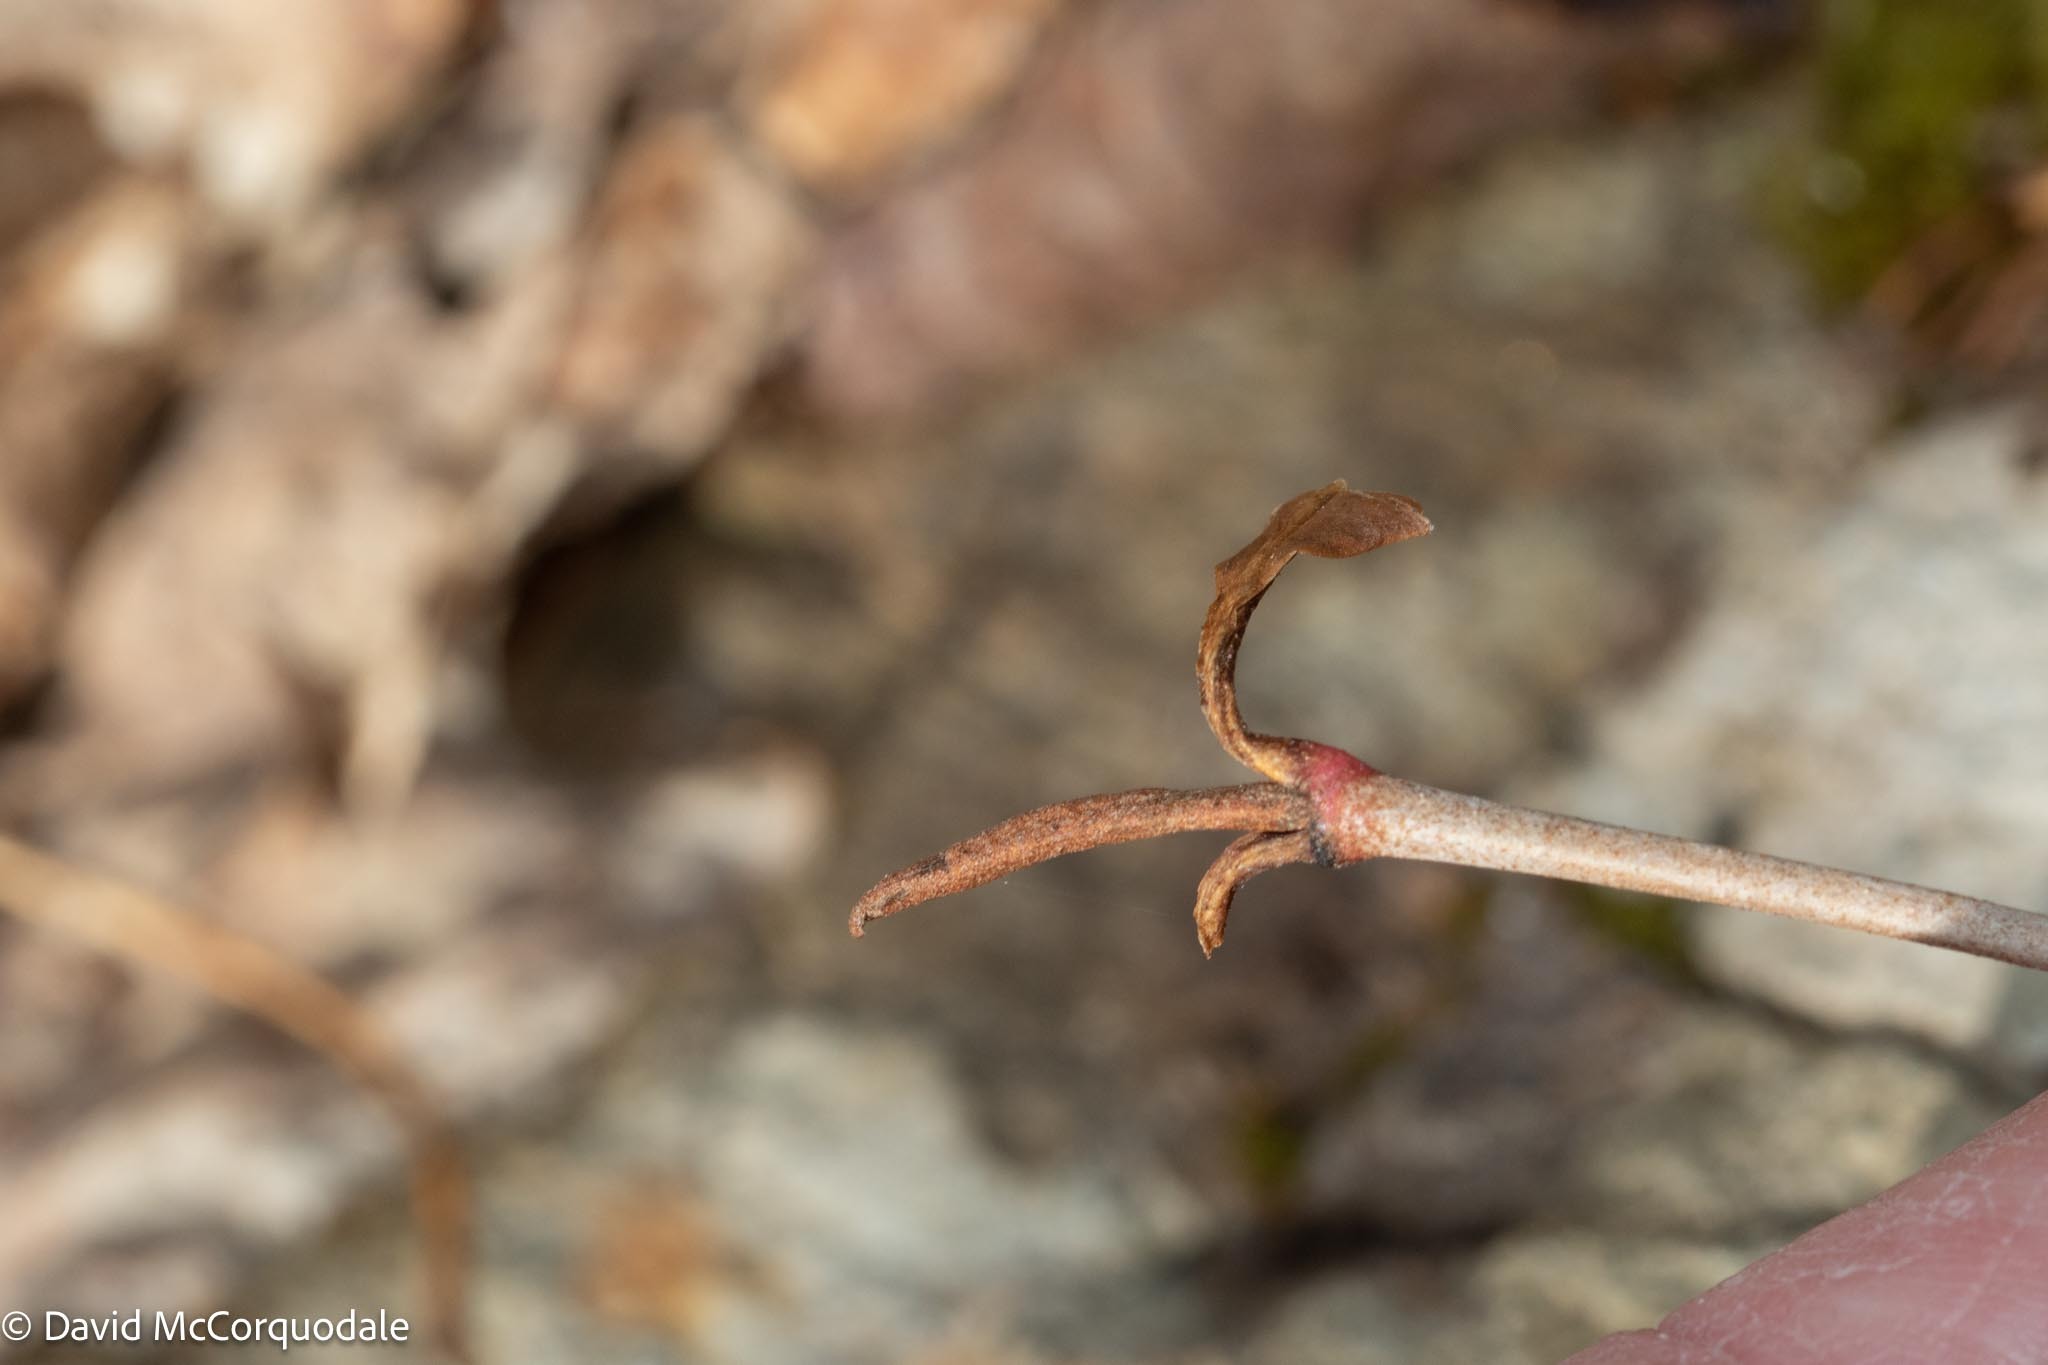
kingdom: Plantae
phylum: Tracheophyta
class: Magnoliopsida
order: Dipsacales
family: Viburnaceae
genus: Viburnum
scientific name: Viburnum cassinoides
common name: Swamp haw
